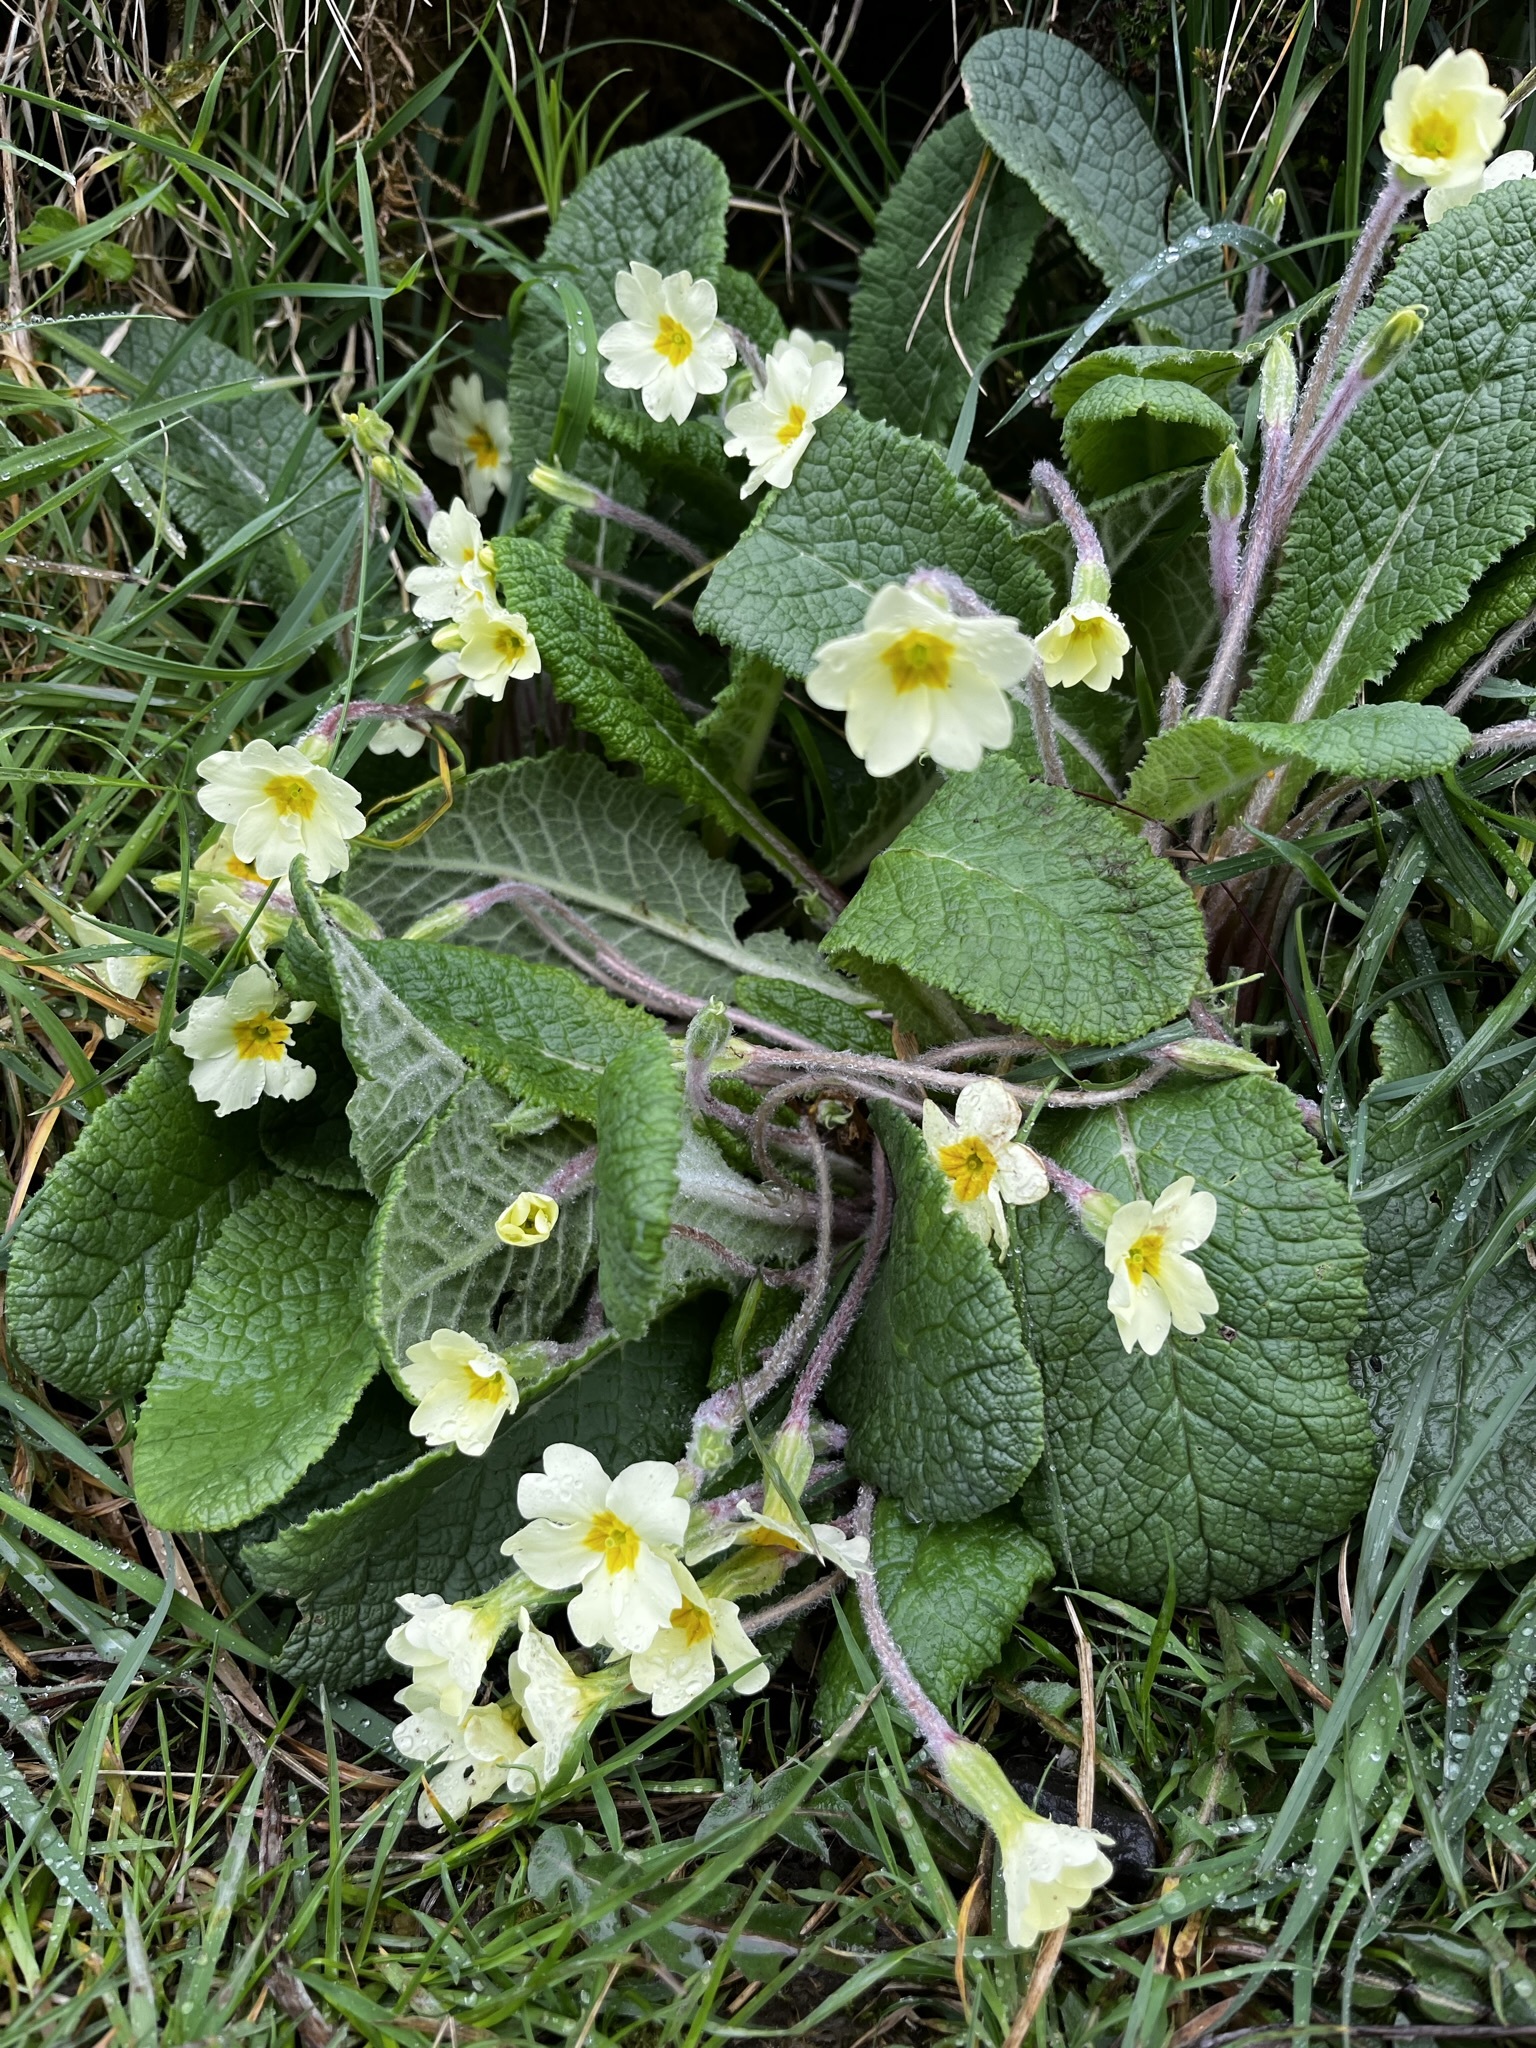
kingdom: Plantae
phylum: Tracheophyta
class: Magnoliopsida
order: Ericales
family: Primulaceae
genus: Primula
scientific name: Primula vulgaris
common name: Primrose
